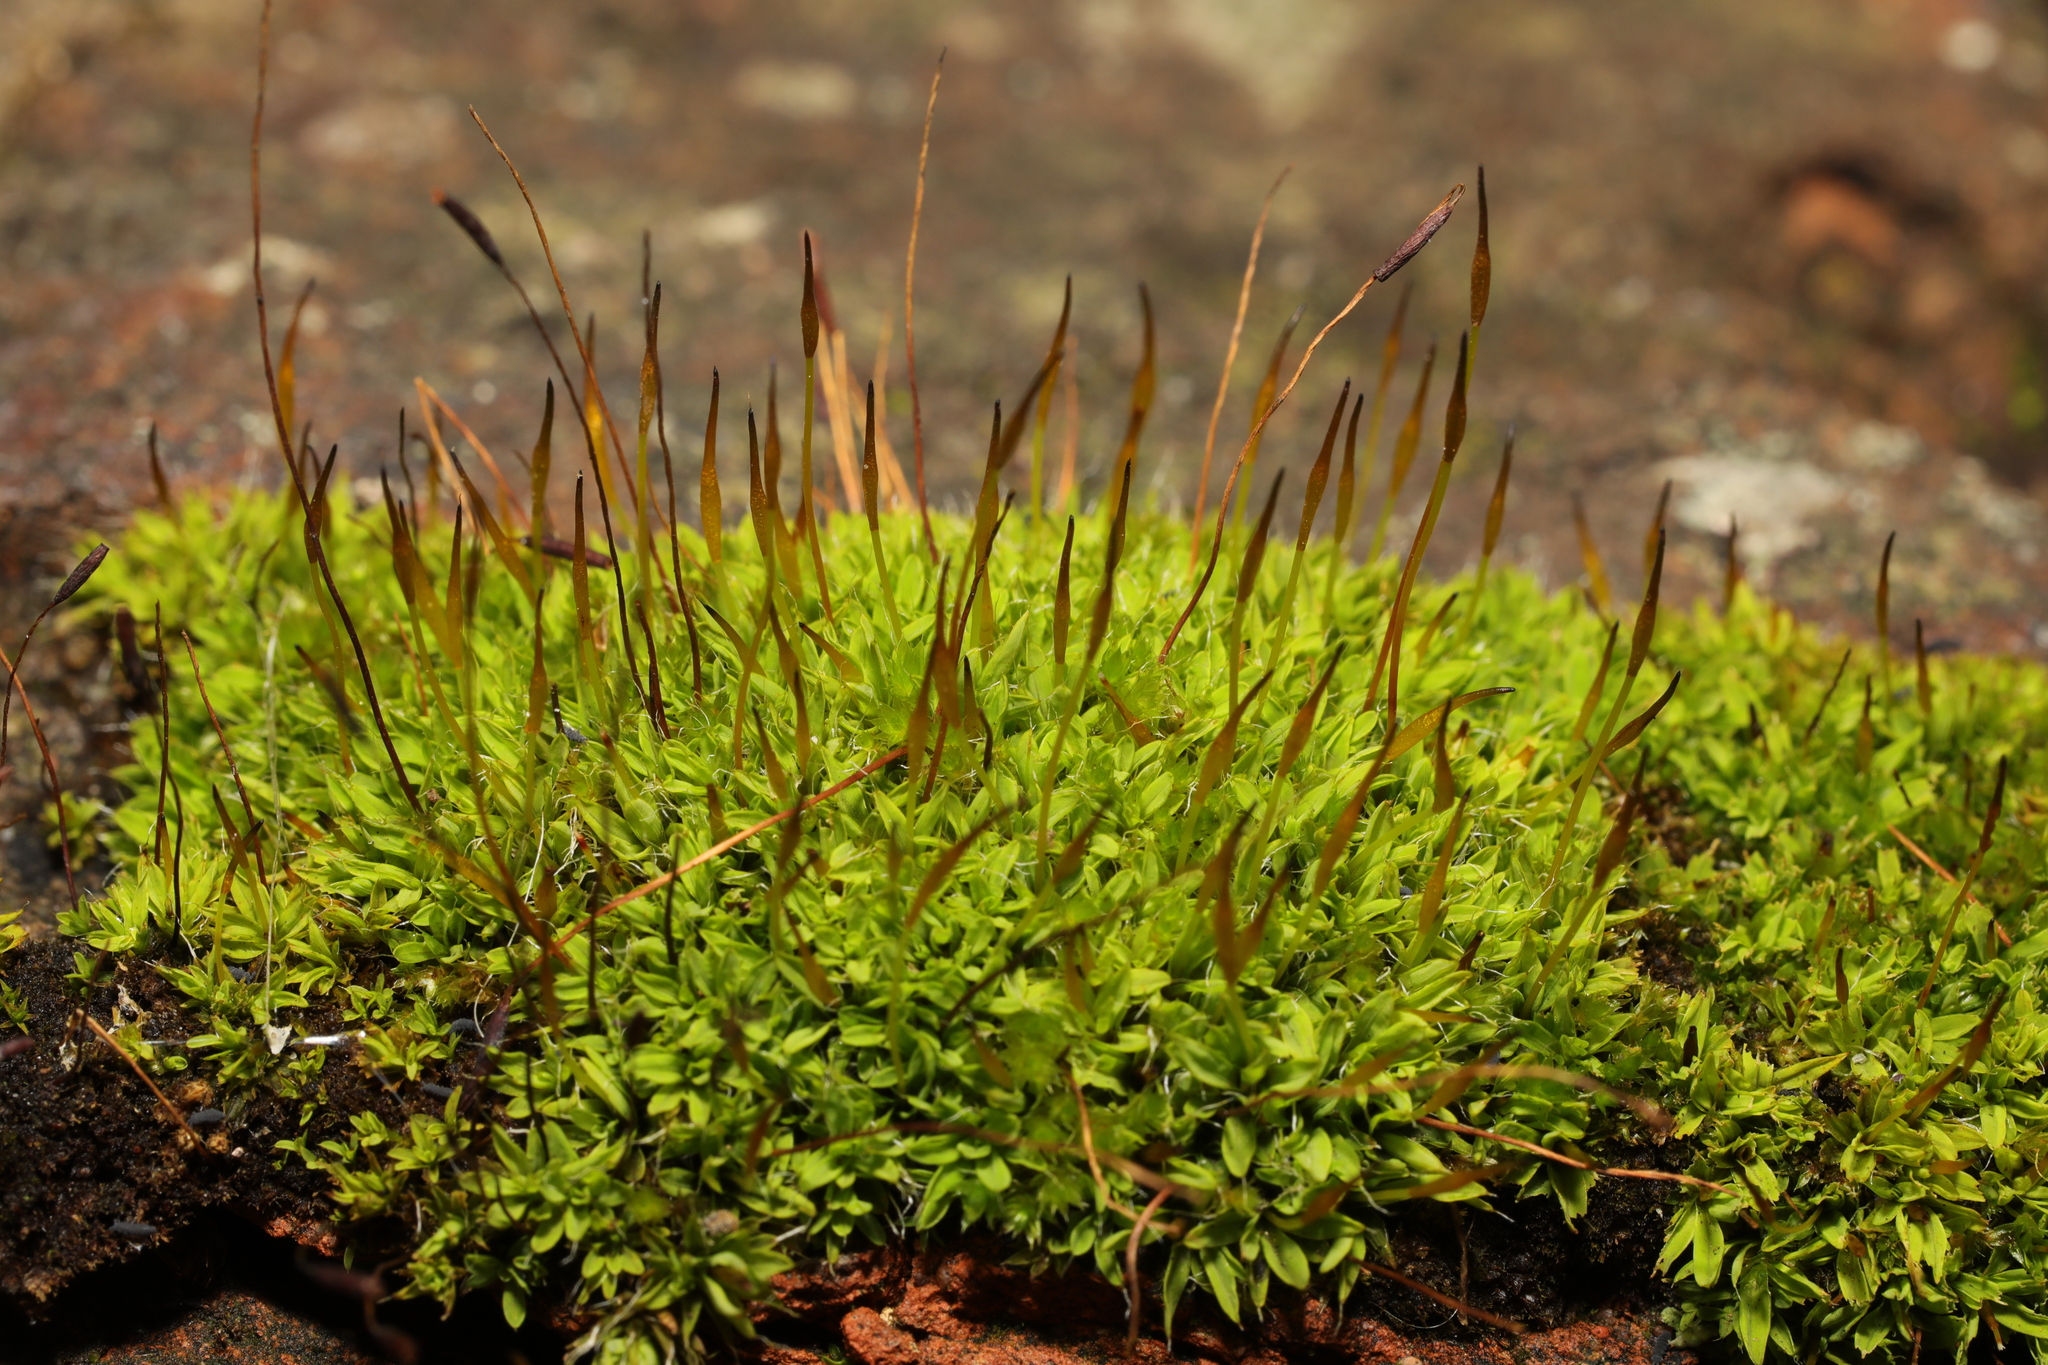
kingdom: Plantae
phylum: Bryophyta
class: Bryopsida
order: Pottiales
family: Pottiaceae
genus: Tortula
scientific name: Tortula muralis
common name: Wall screw-moss
